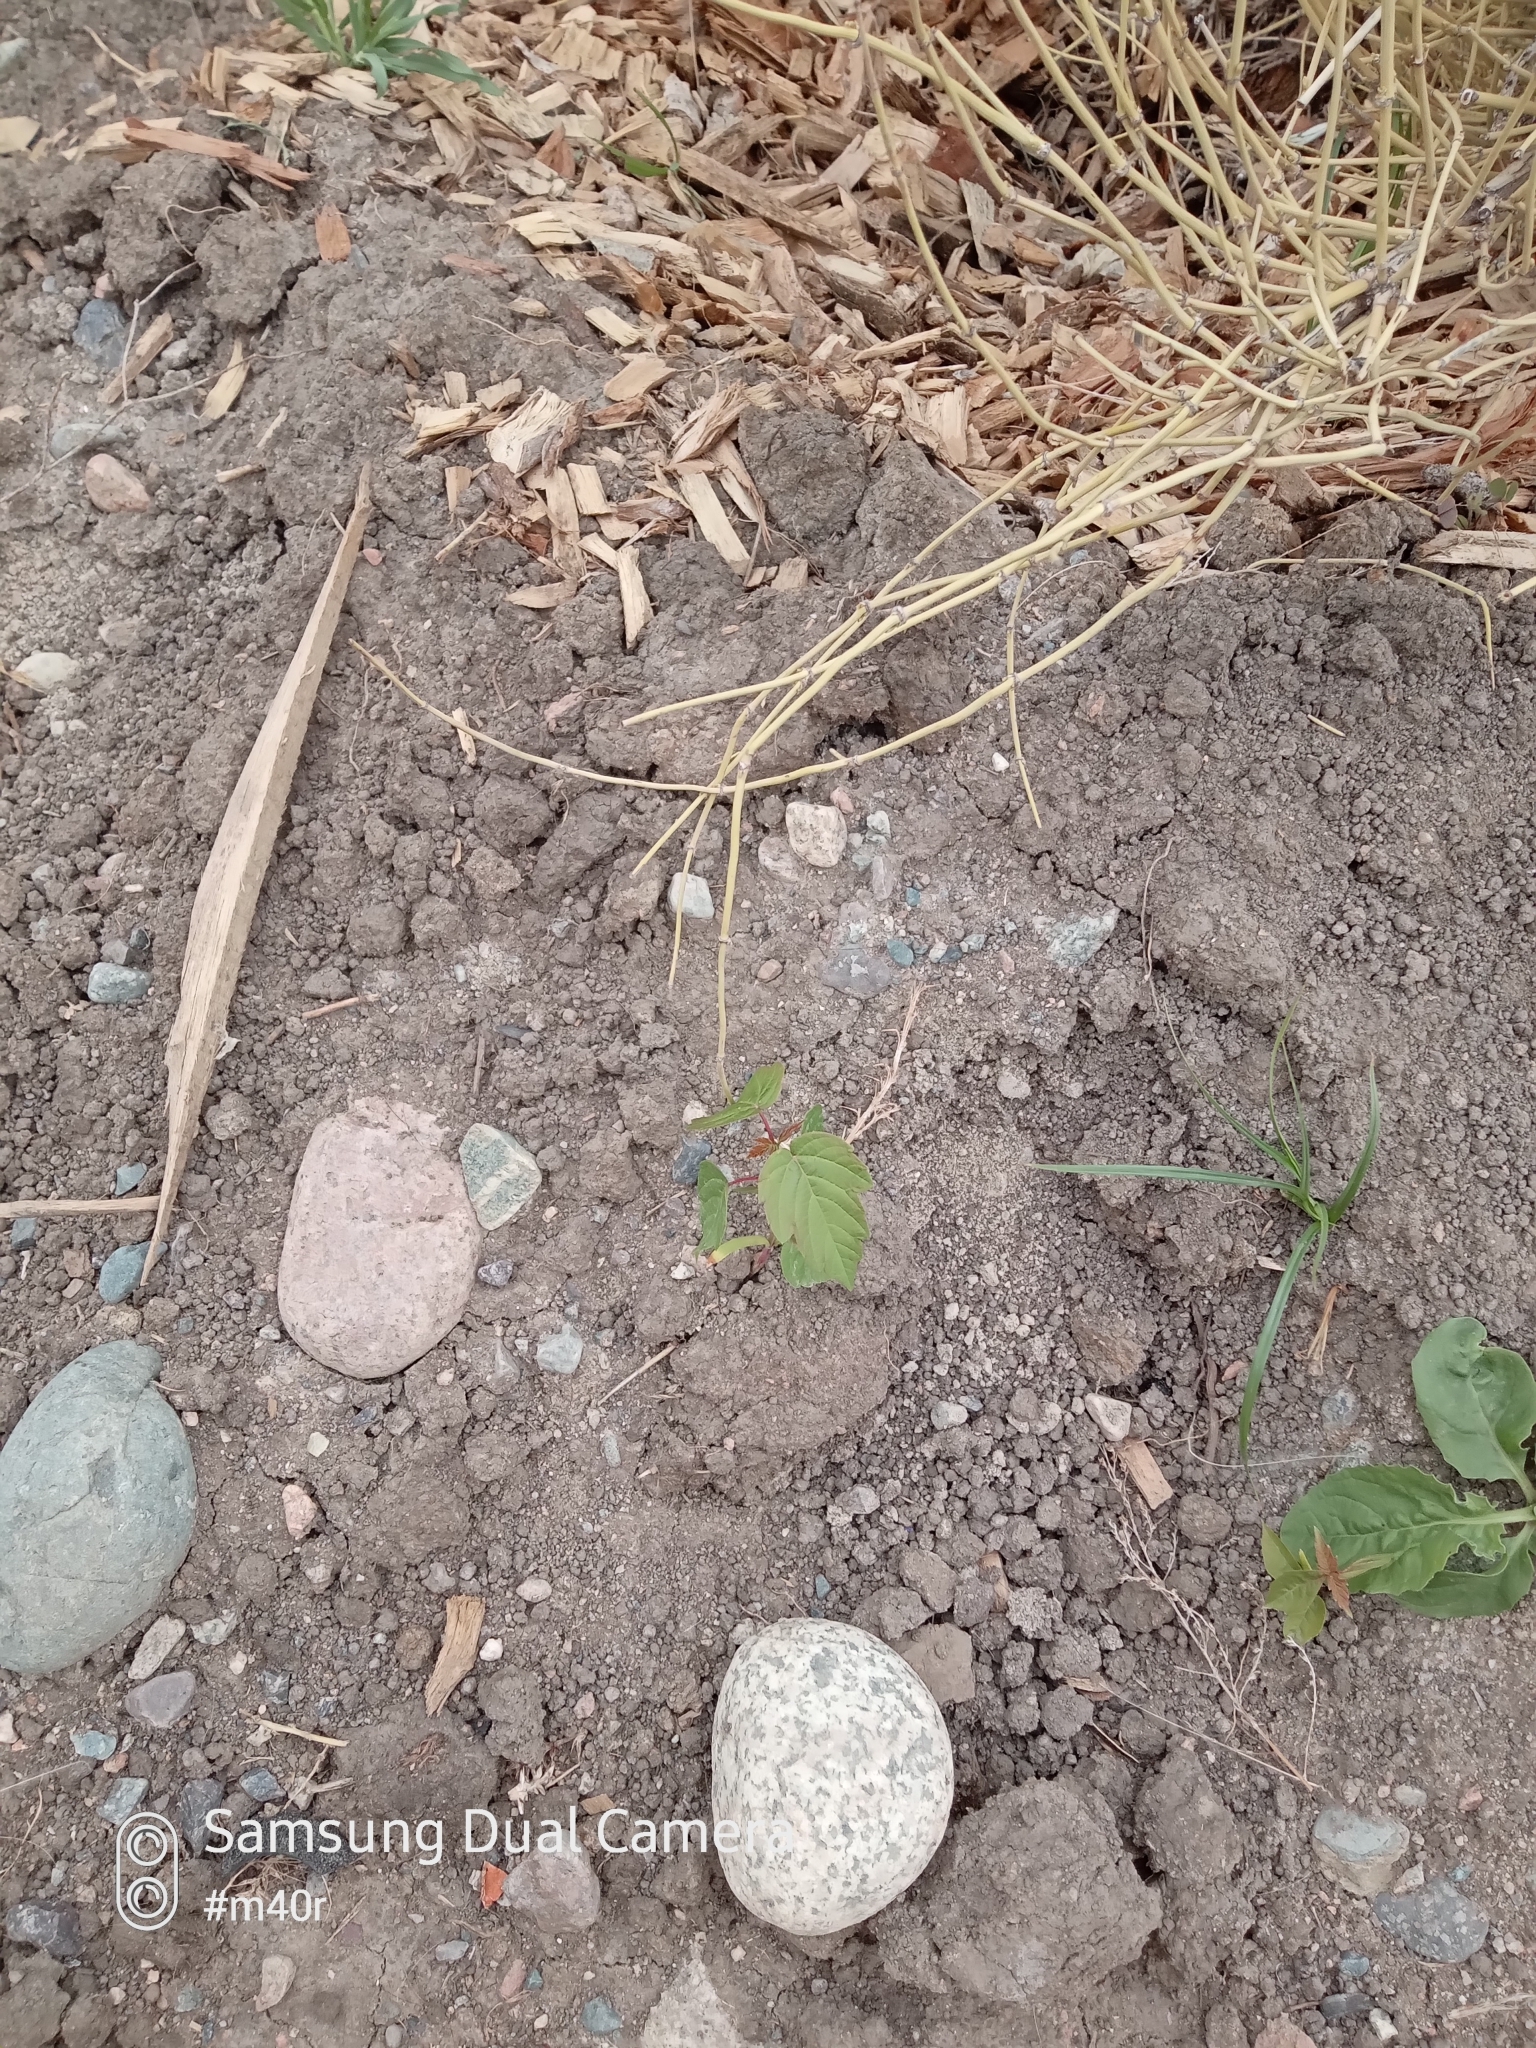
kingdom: Plantae
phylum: Tracheophyta
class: Magnoliopsida
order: Sapindales
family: Sapindaceae
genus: Acer
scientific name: Acer negundo
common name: Ashleaf maple
